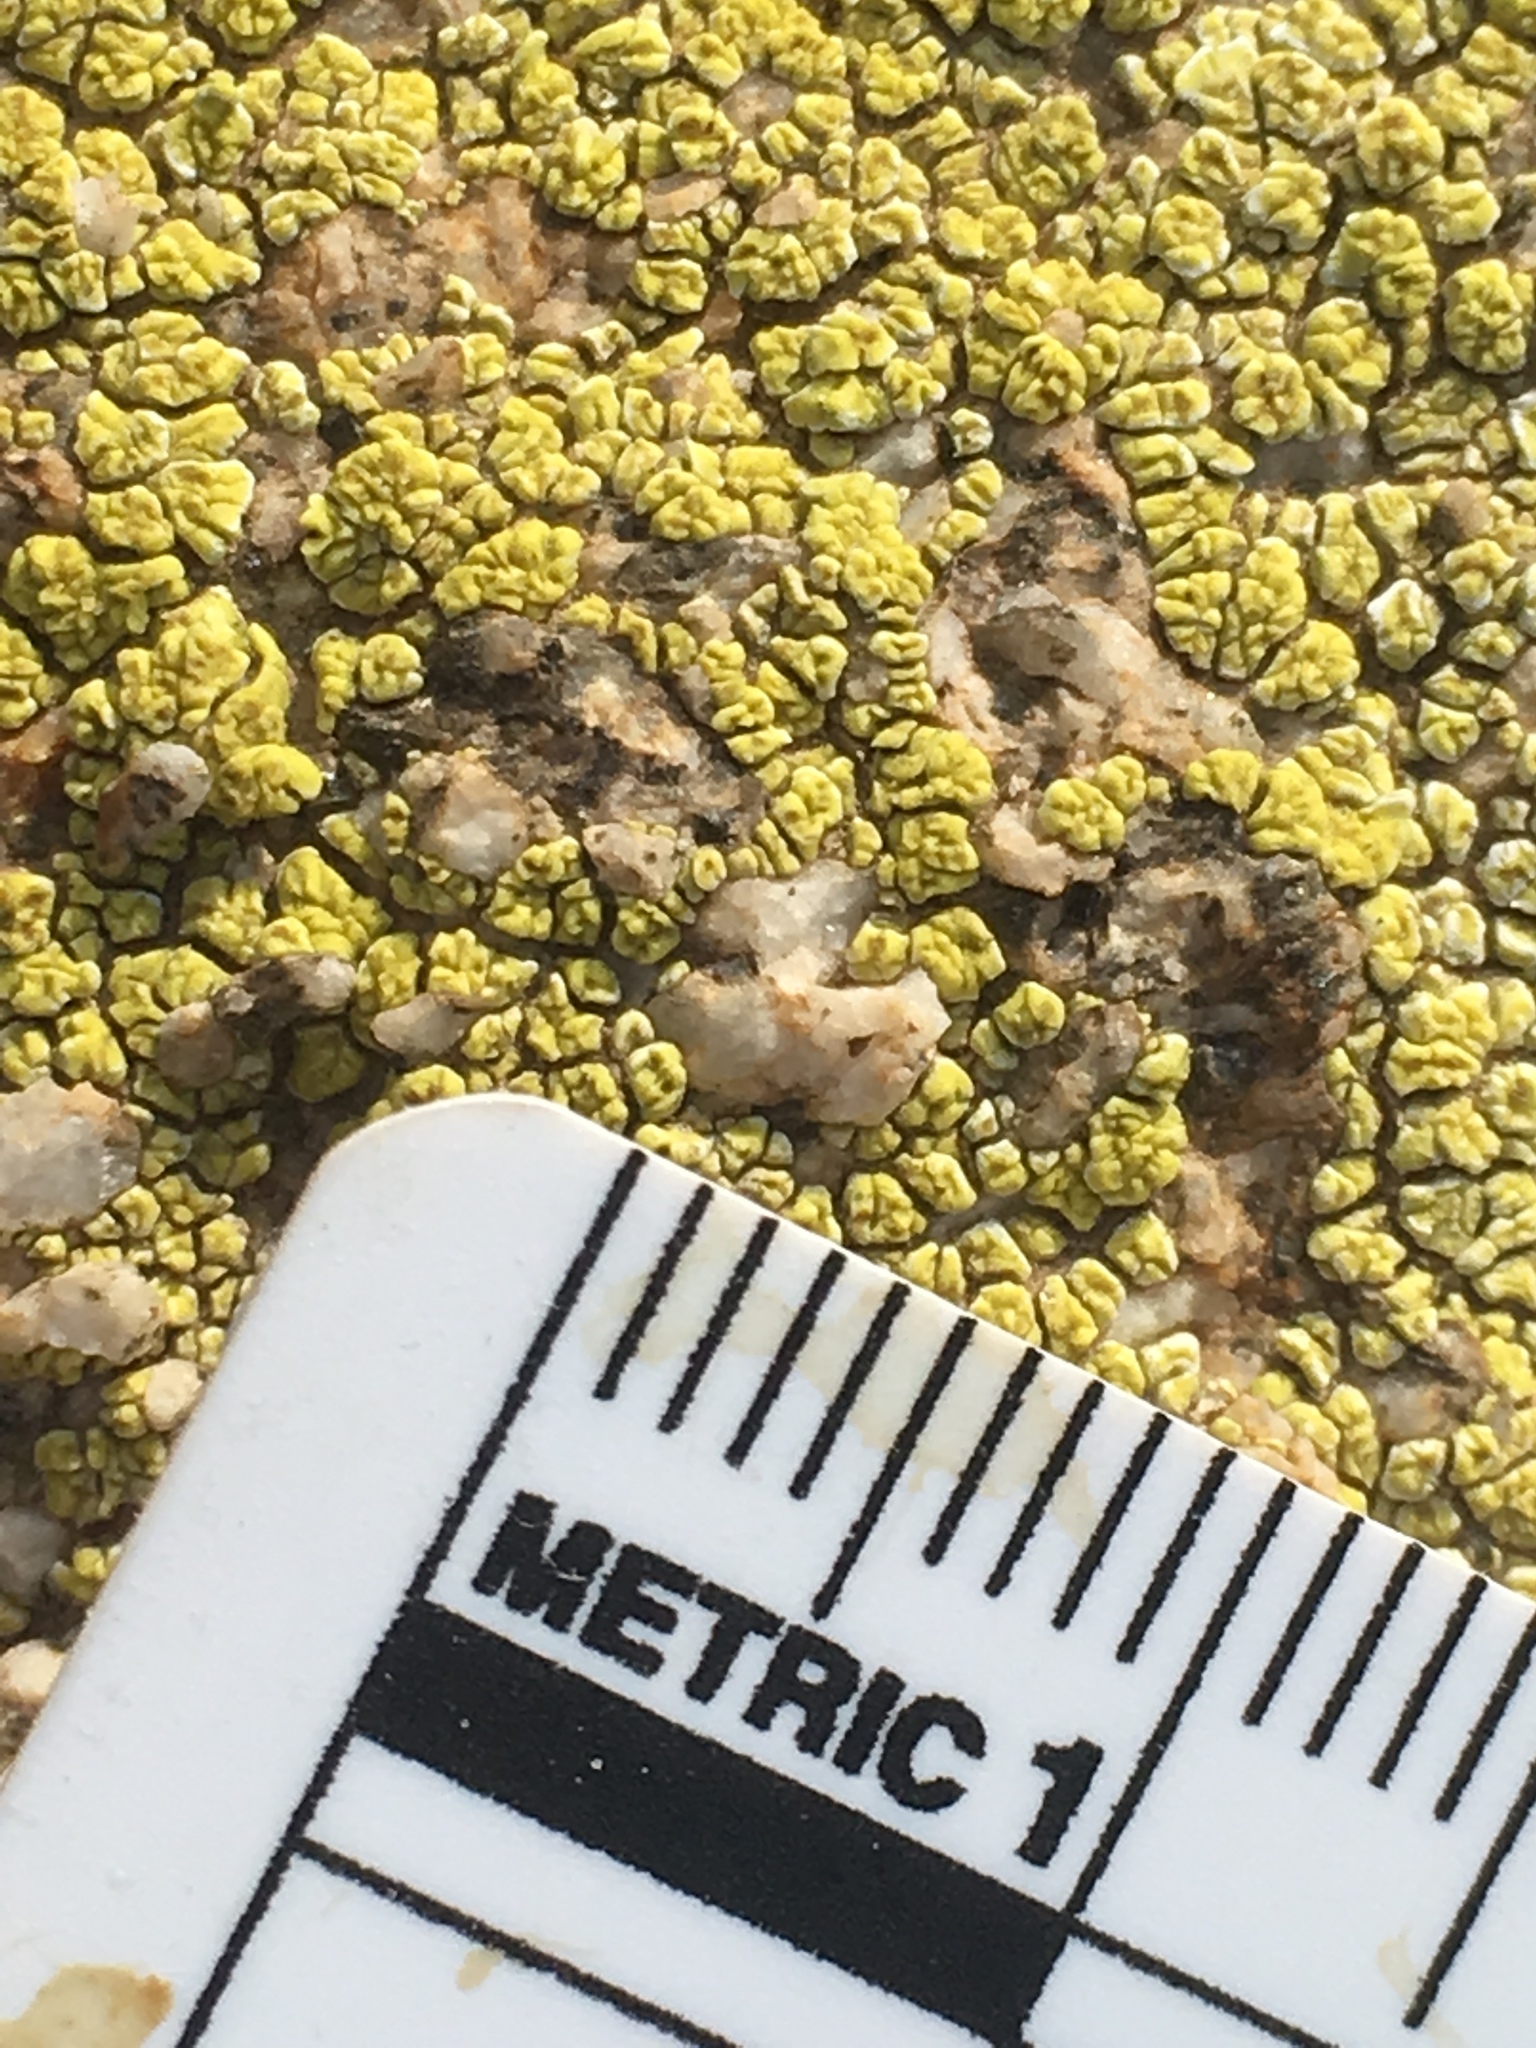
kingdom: Fungi
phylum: Ascomycota
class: Lecanoromycetes
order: Acarosporales
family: Acarosporaceae
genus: Acarospora
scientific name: Acarospora socialis
